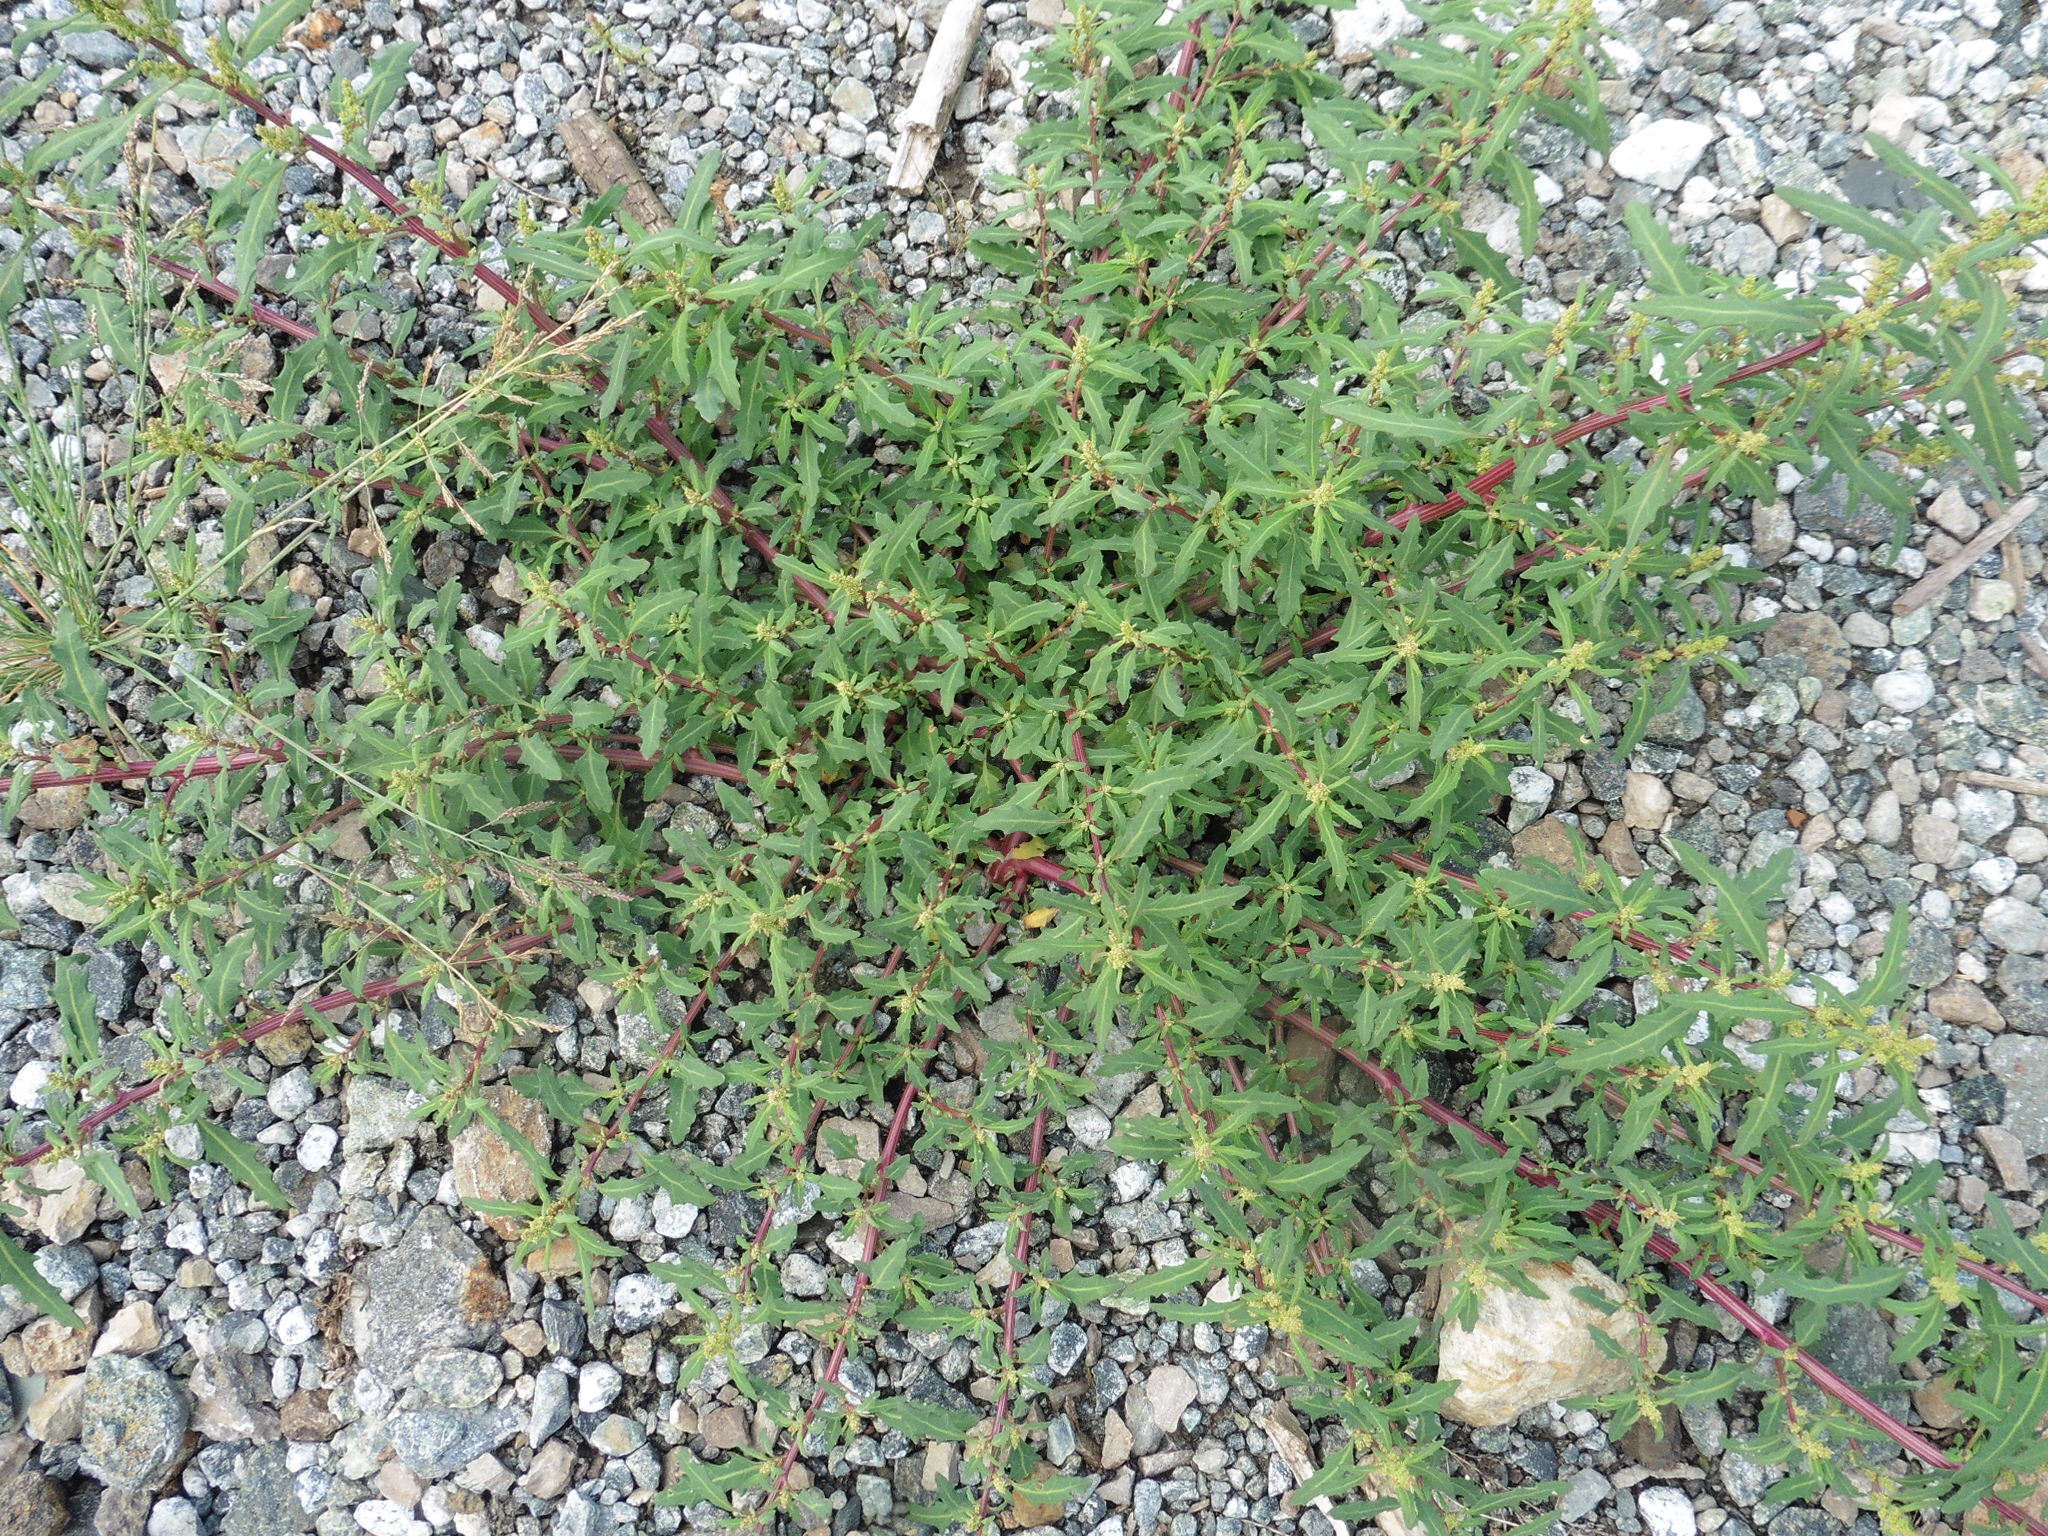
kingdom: Plantae
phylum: Tracheophyta
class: Magnoliopsida
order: Caryophyllales
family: Amaranthaceae
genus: Oxybasis
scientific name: Oxybasis glauca
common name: Glaucous goosefoot
